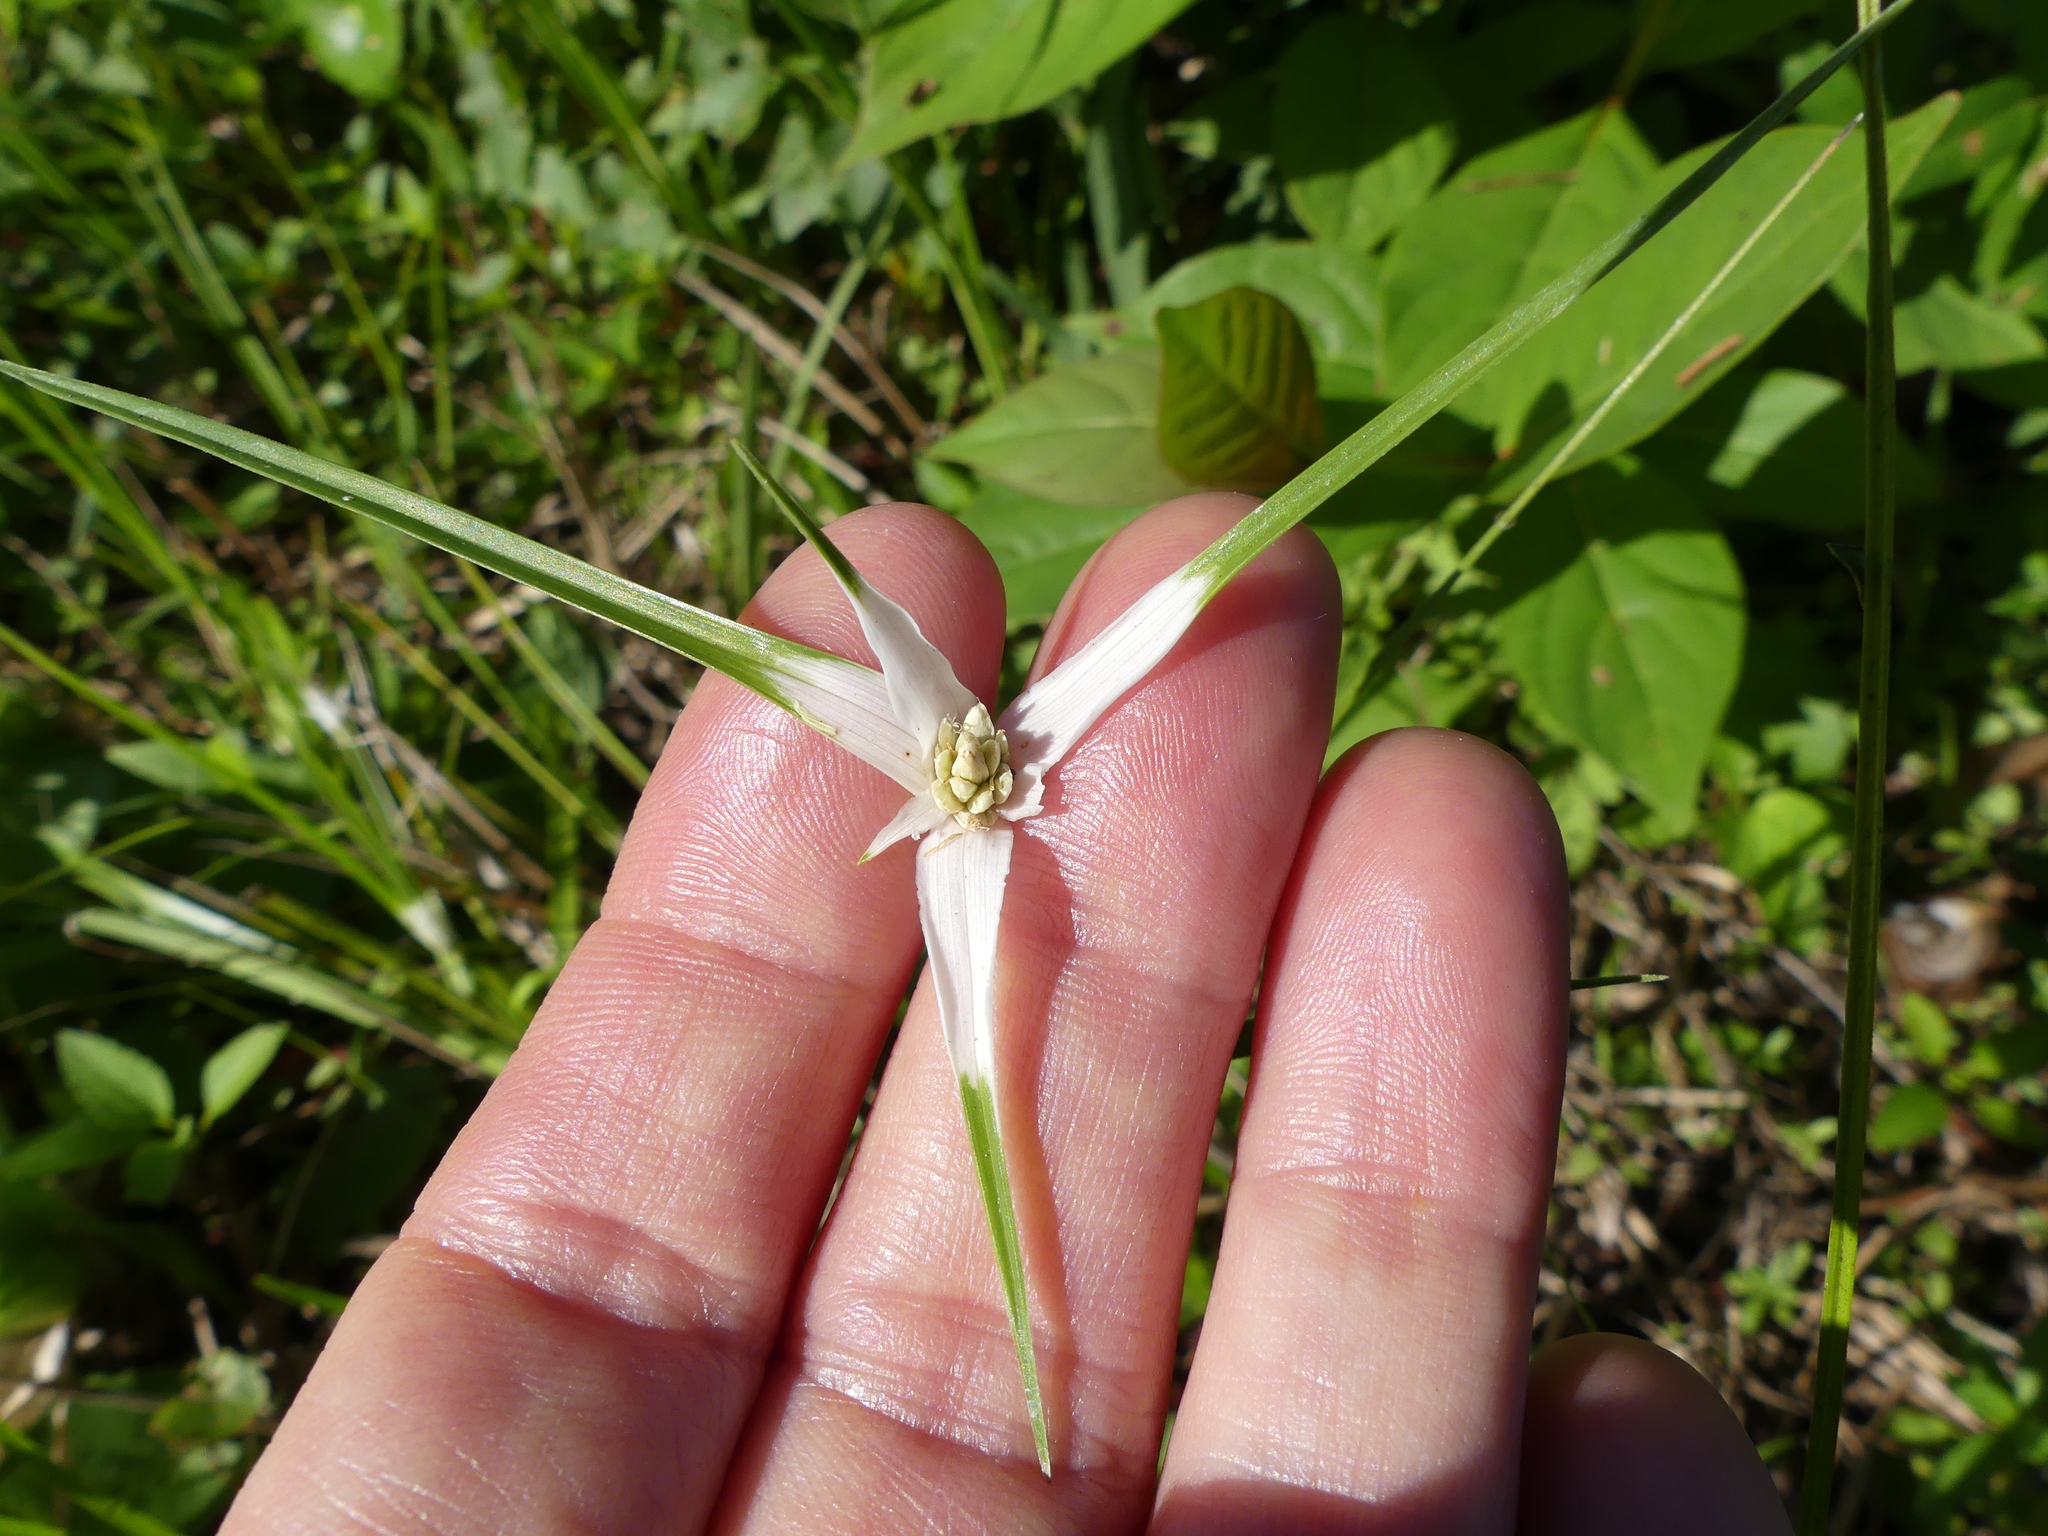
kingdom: Plantae
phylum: Tracheophyta
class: Liliopsida
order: Poales
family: Cyperaceae
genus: Rhynchospora
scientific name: Rhynchospora colorata
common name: Star sedge
